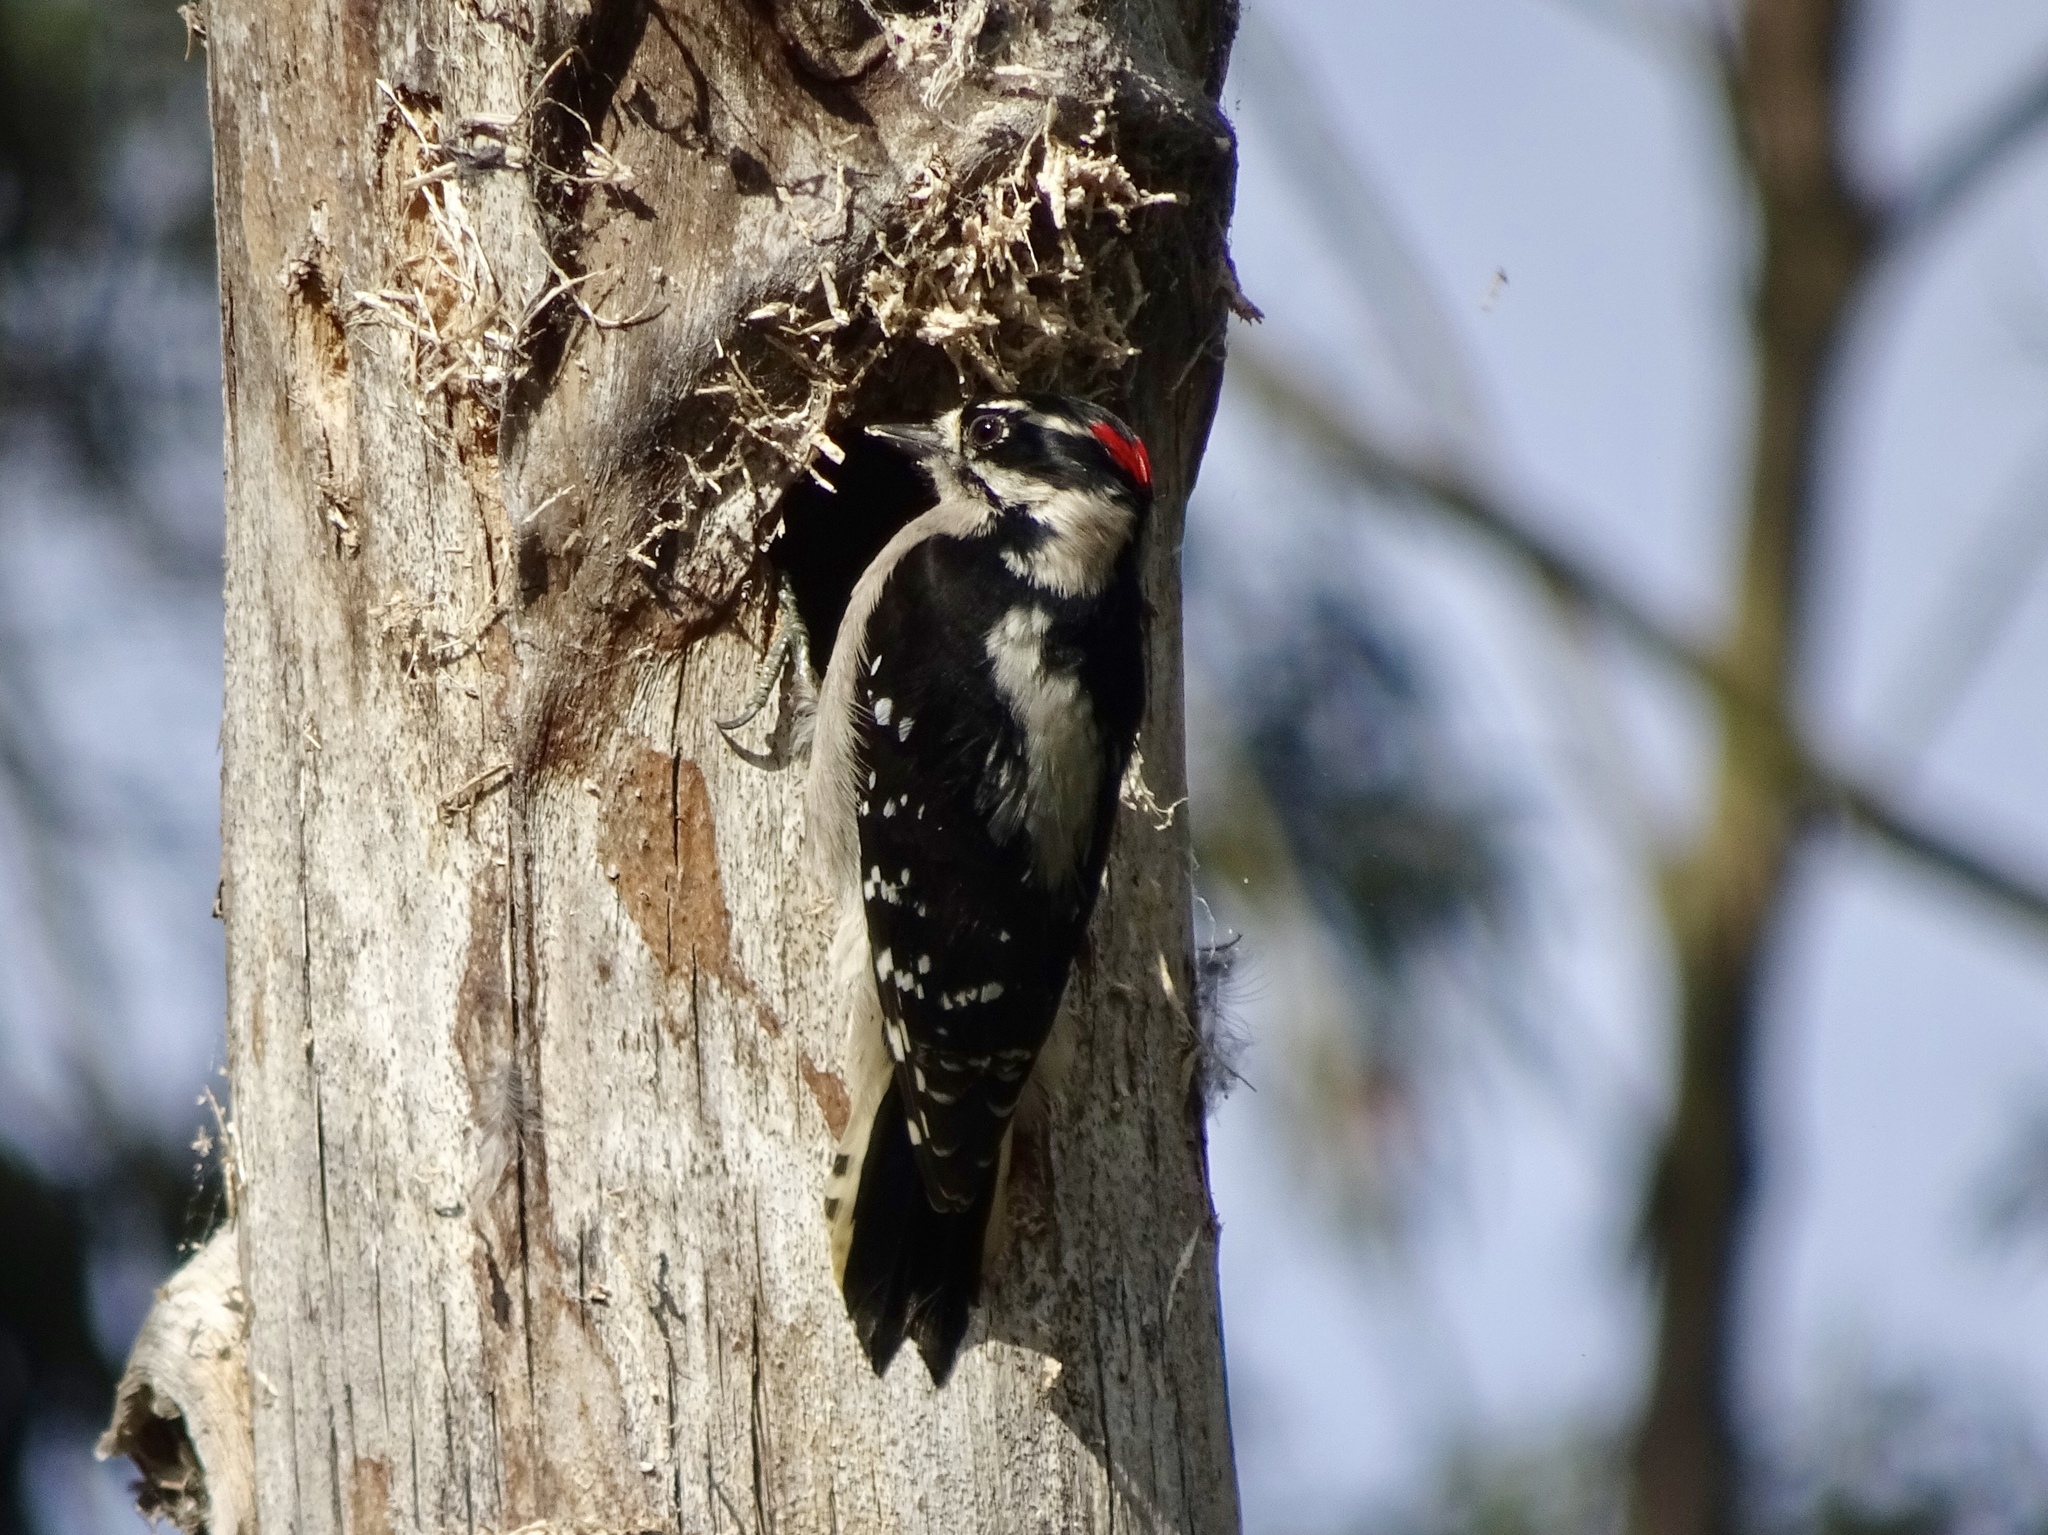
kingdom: Animalia
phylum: Chordata
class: Aves
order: Piciformes
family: Picidae
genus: Dryobates
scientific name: Dryobates pubescens
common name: Downy woodpecker
